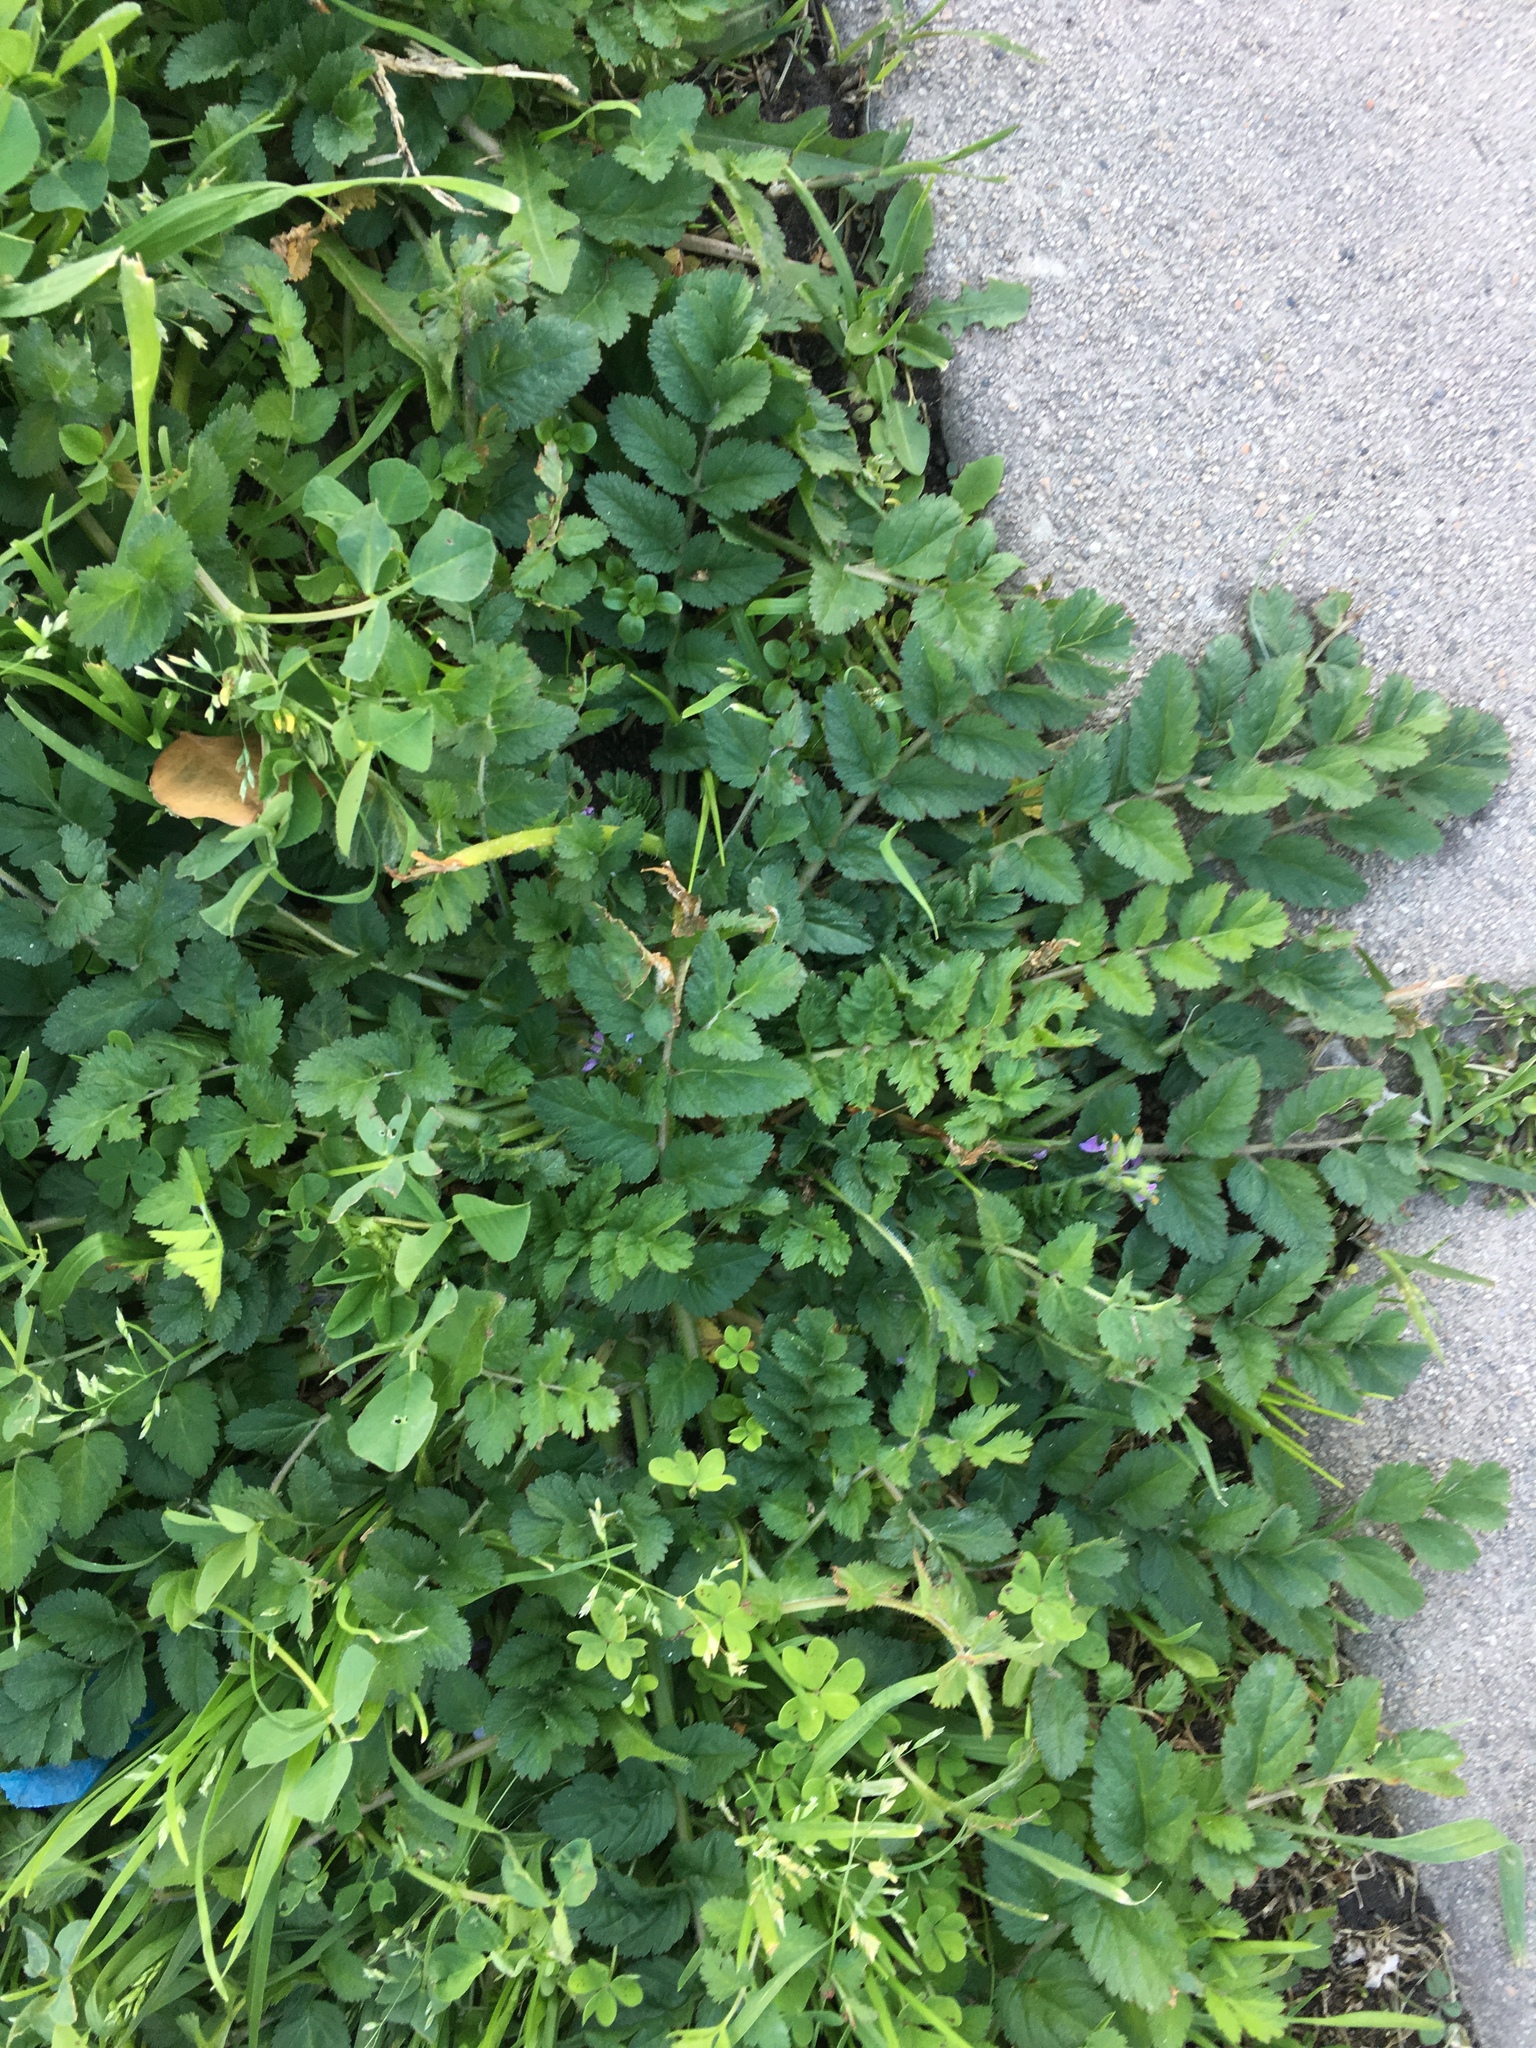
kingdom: Plantae
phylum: Tracheophyta
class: Magnoliopsida
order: Geraniales
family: Geraniaceae
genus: Erodium
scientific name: Erodium moschatum
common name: Musk stork's-bill
